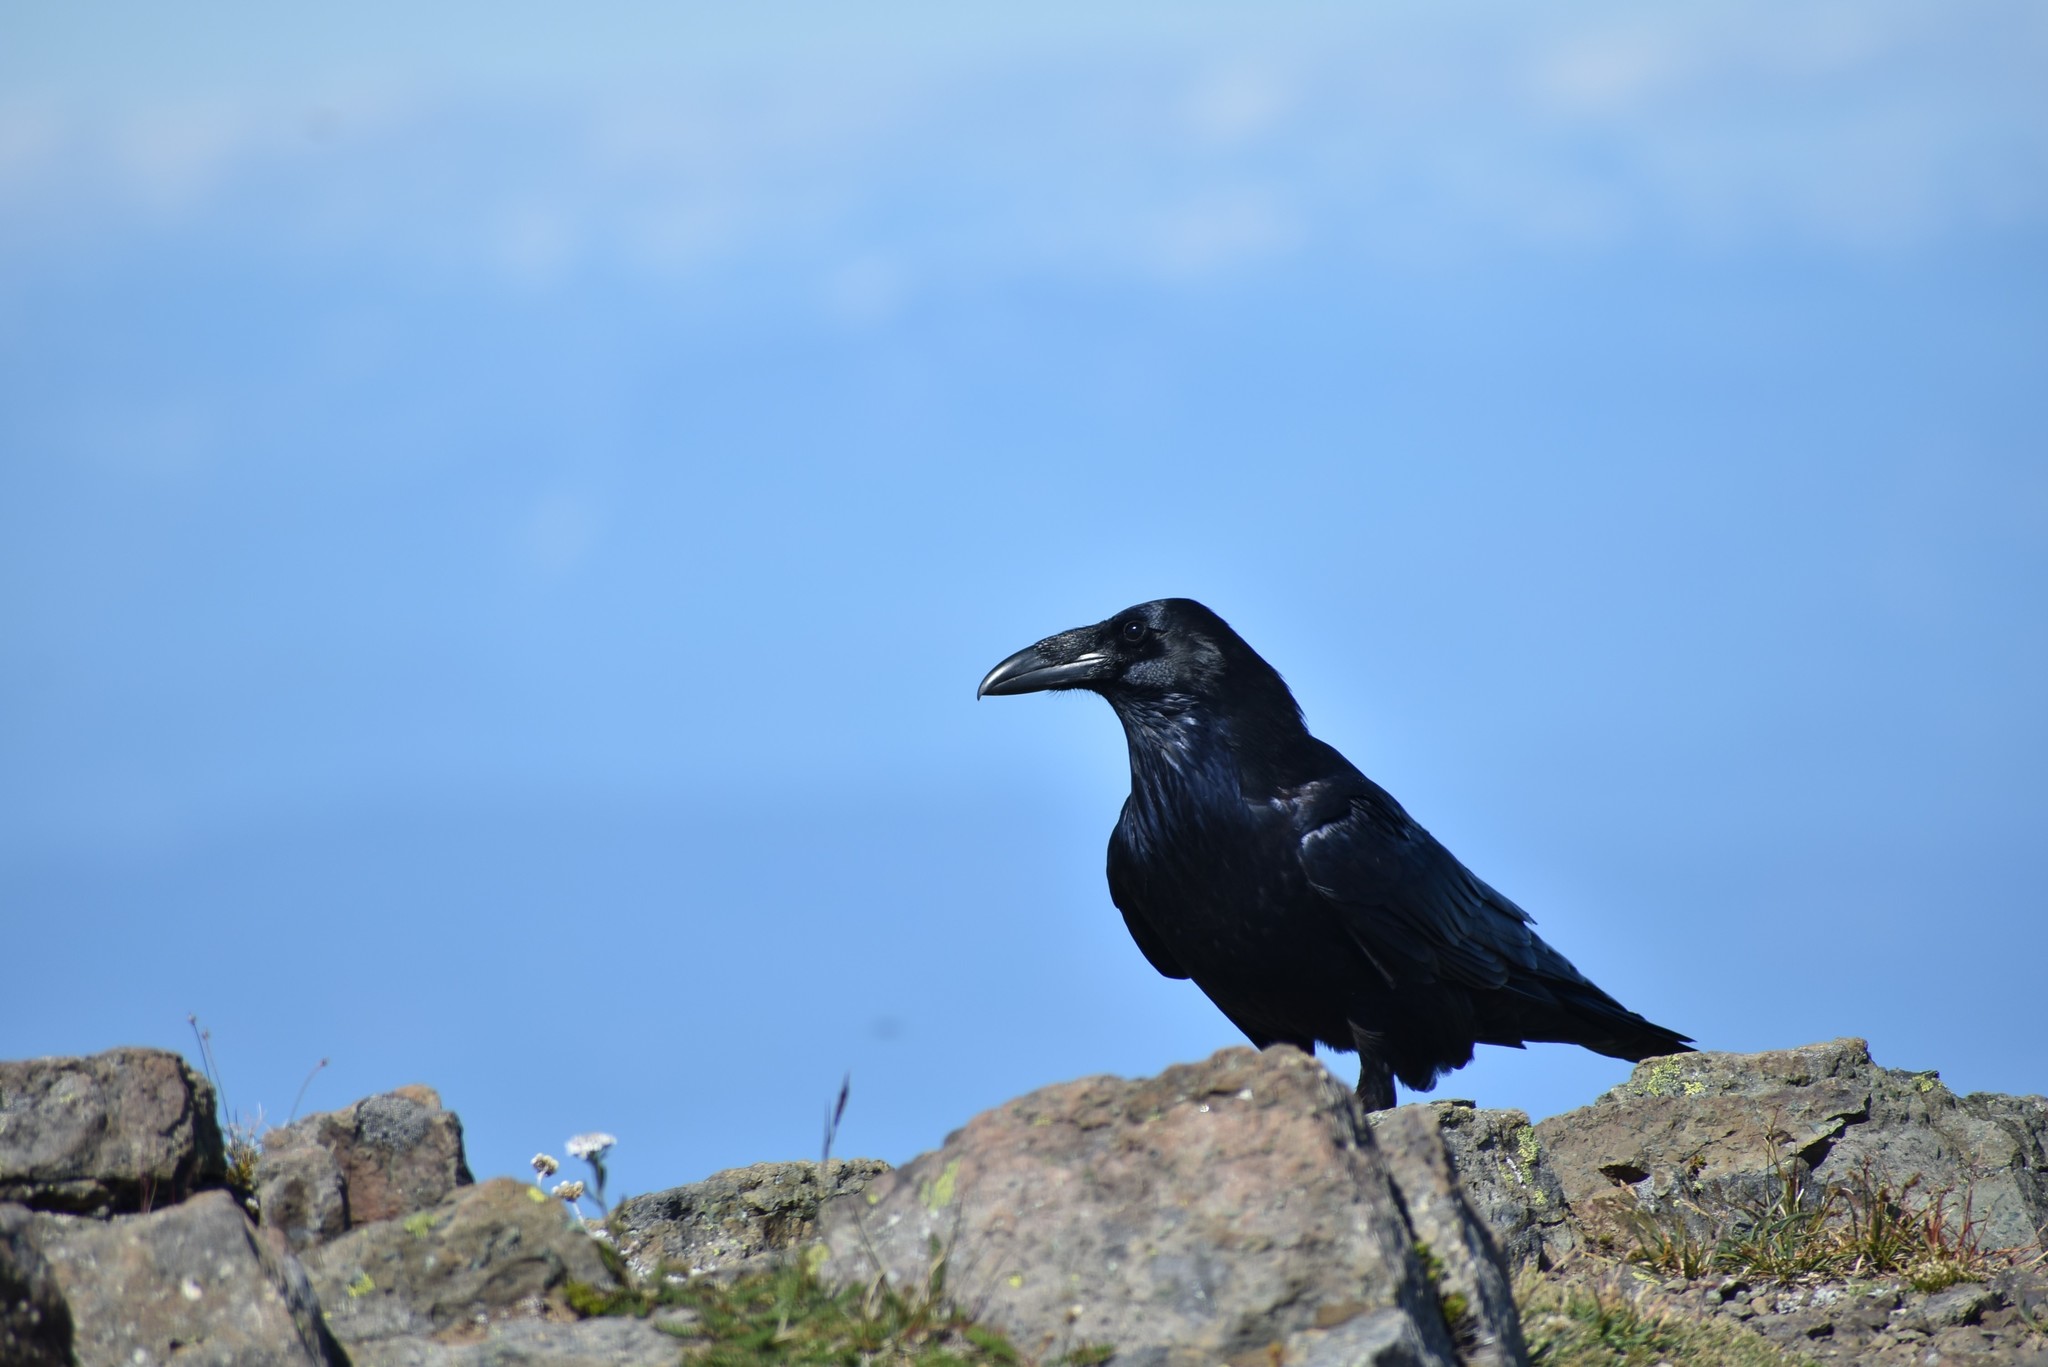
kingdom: Animalia
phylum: Chordata
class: Aves
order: Passeriformes
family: Corvidae
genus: Corvus
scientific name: Corvus corax
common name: Common raven
